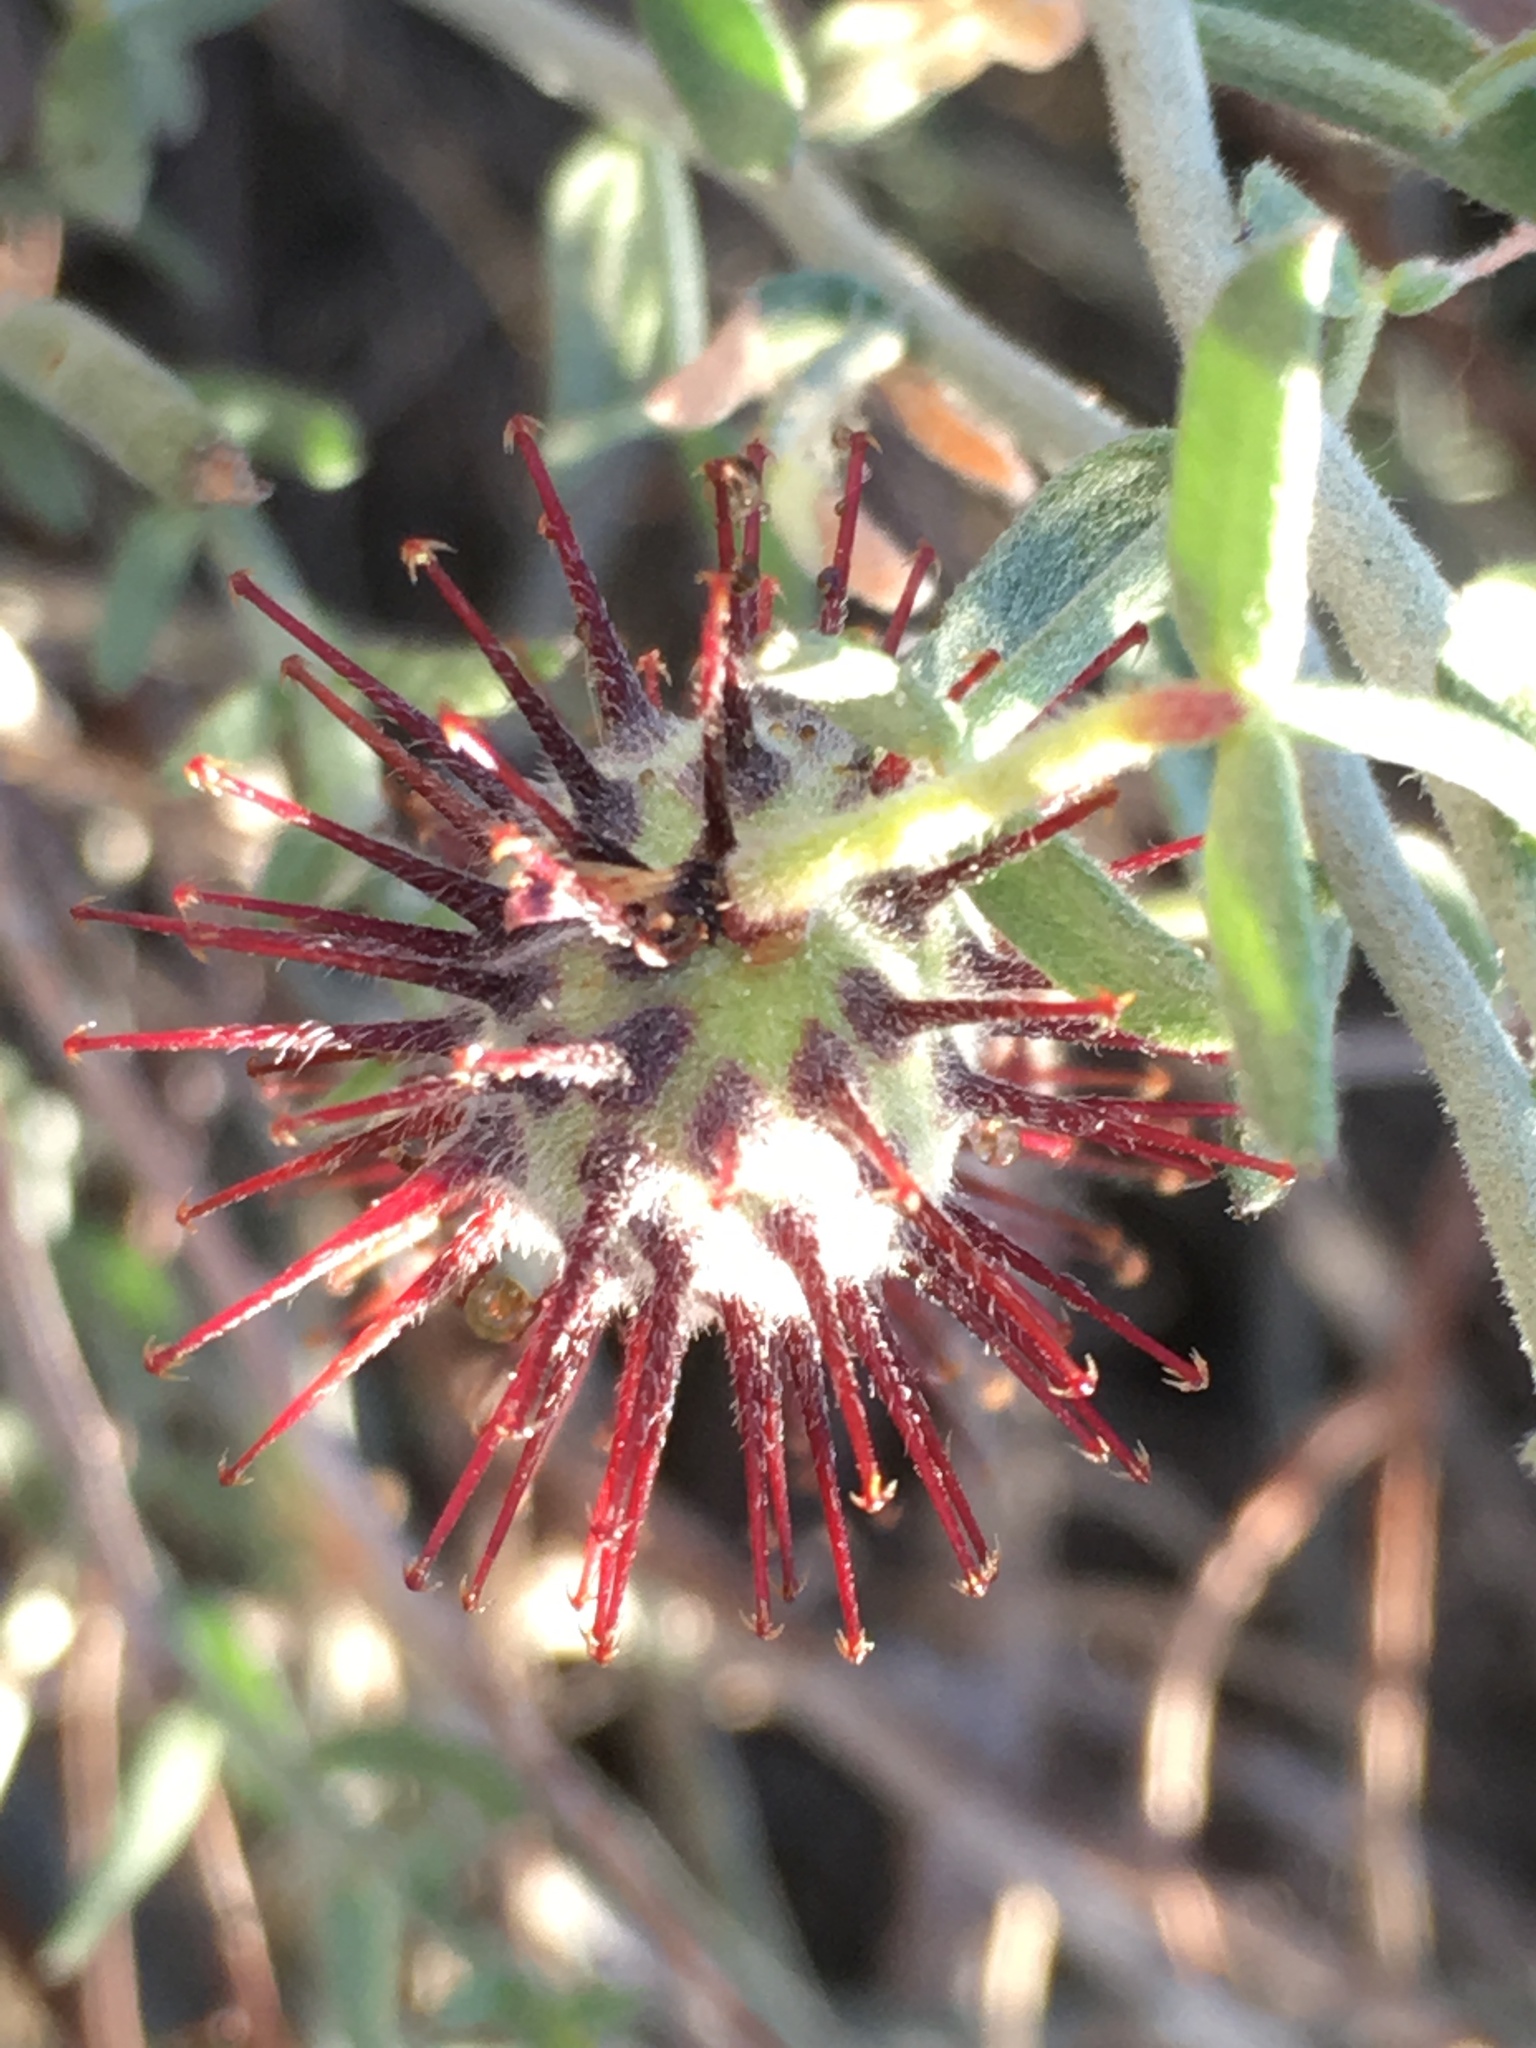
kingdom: Plantae
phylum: Tracheophyta
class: Magnoliopsida
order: Zygophyllales
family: Krameriaceae
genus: Krameria
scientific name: Krameria bicolor
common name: White ratany
